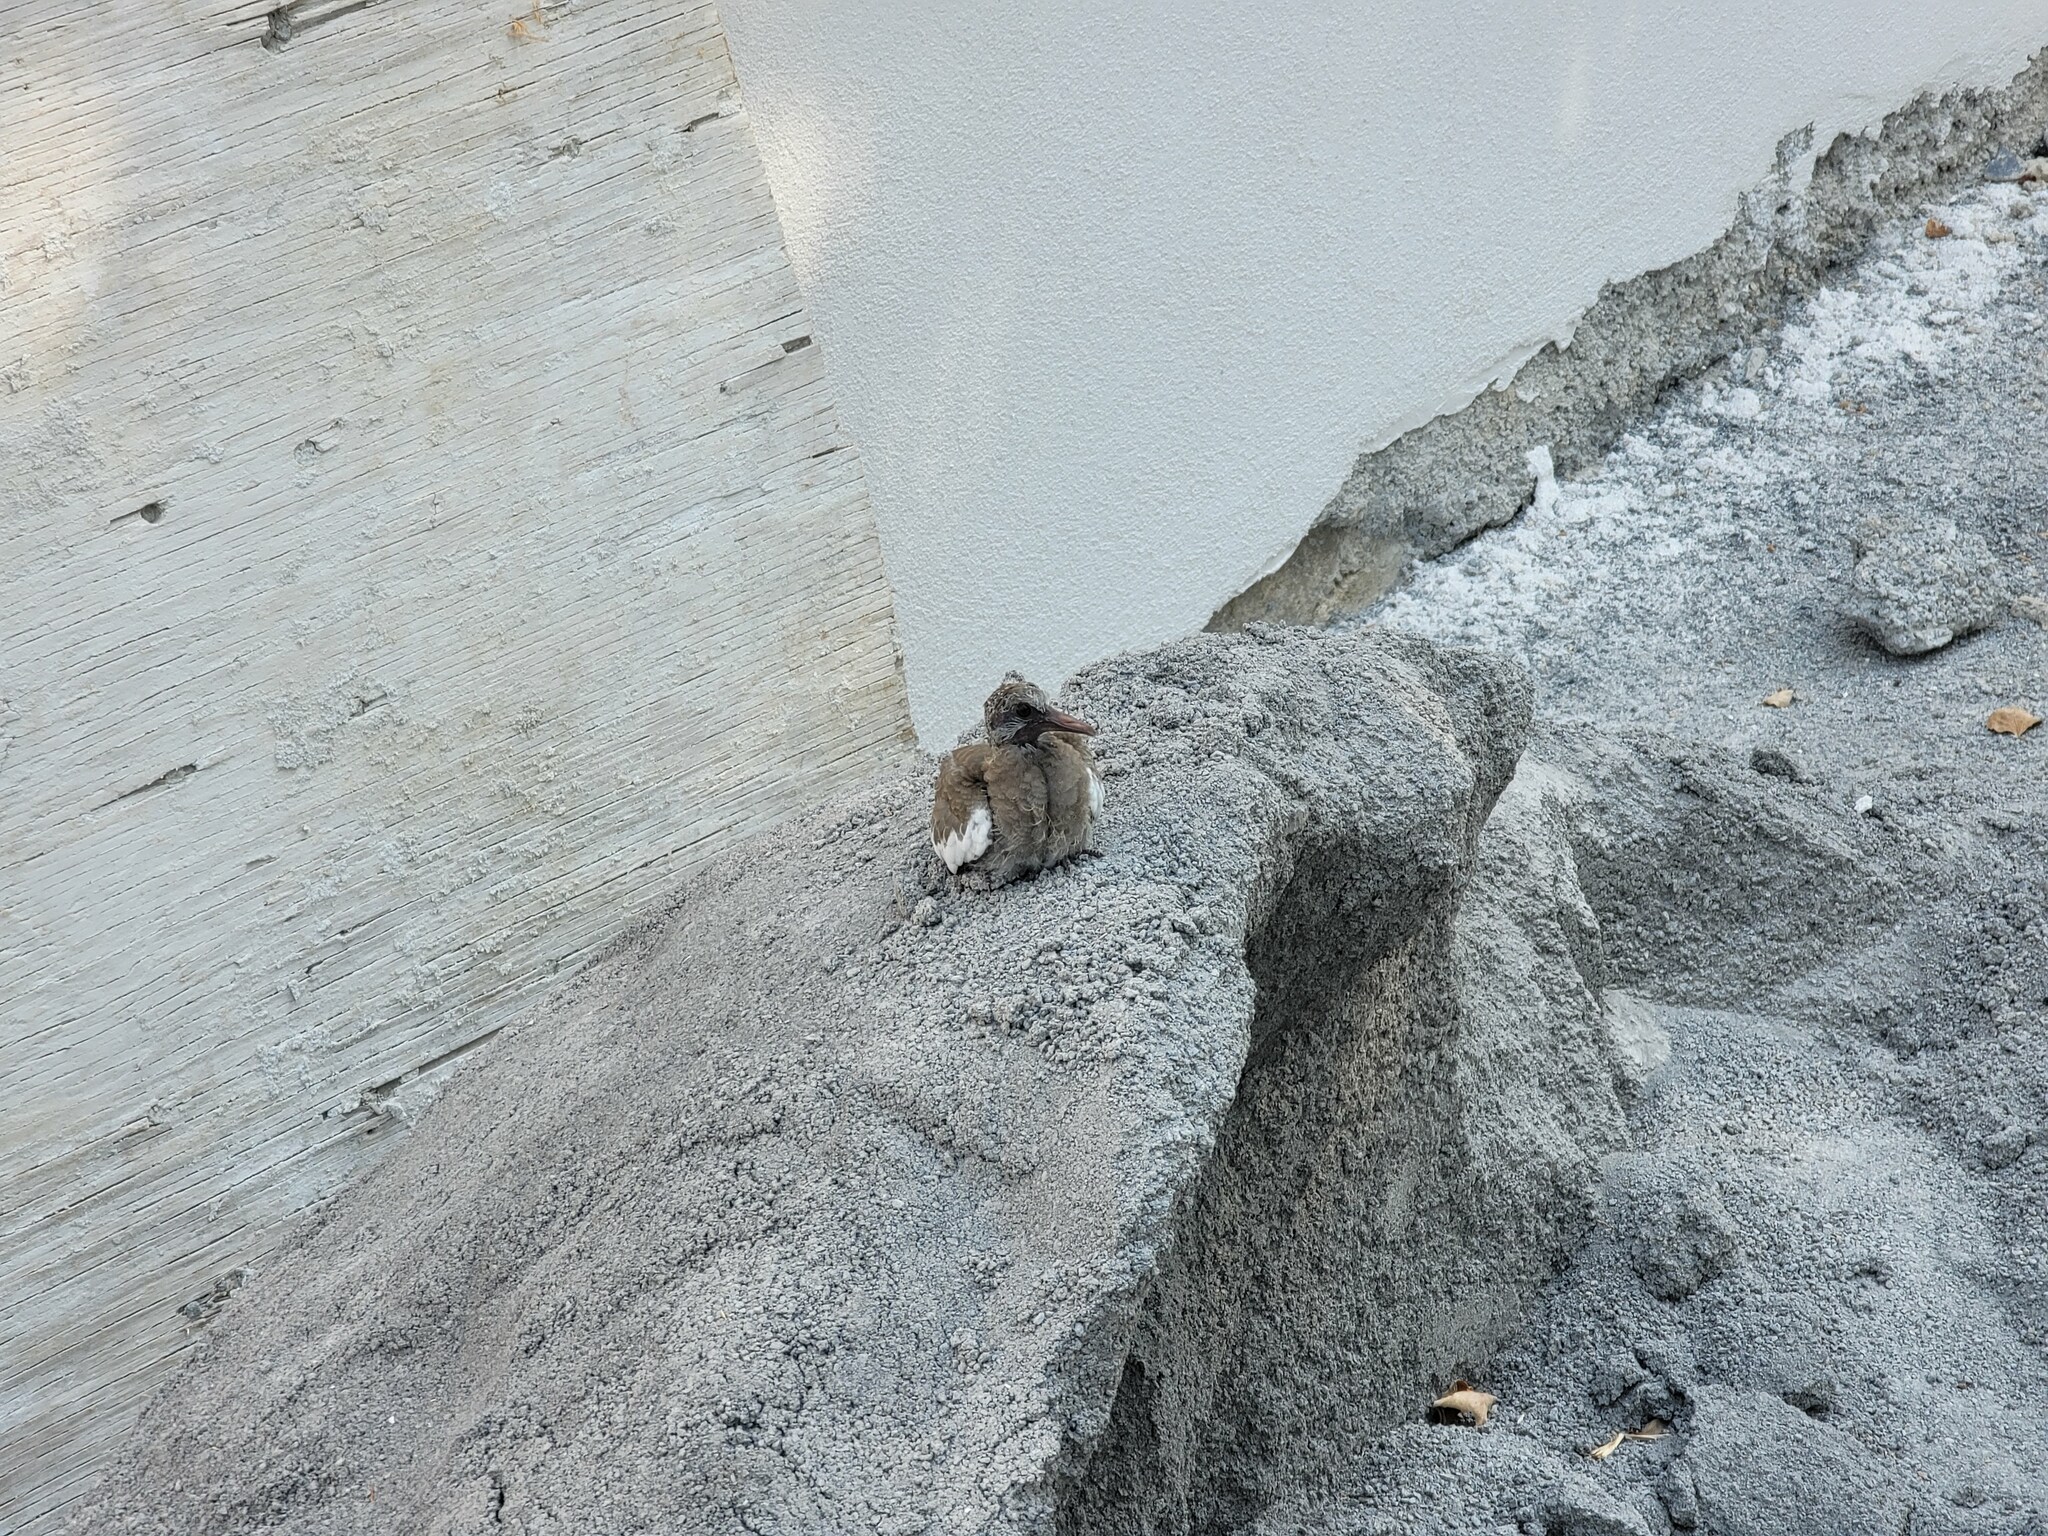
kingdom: Animalia
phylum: Chordata
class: Aves
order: Columbiformes
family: Columbidae
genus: Zenaida
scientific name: Zenaida asiatica
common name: White-winged dove
